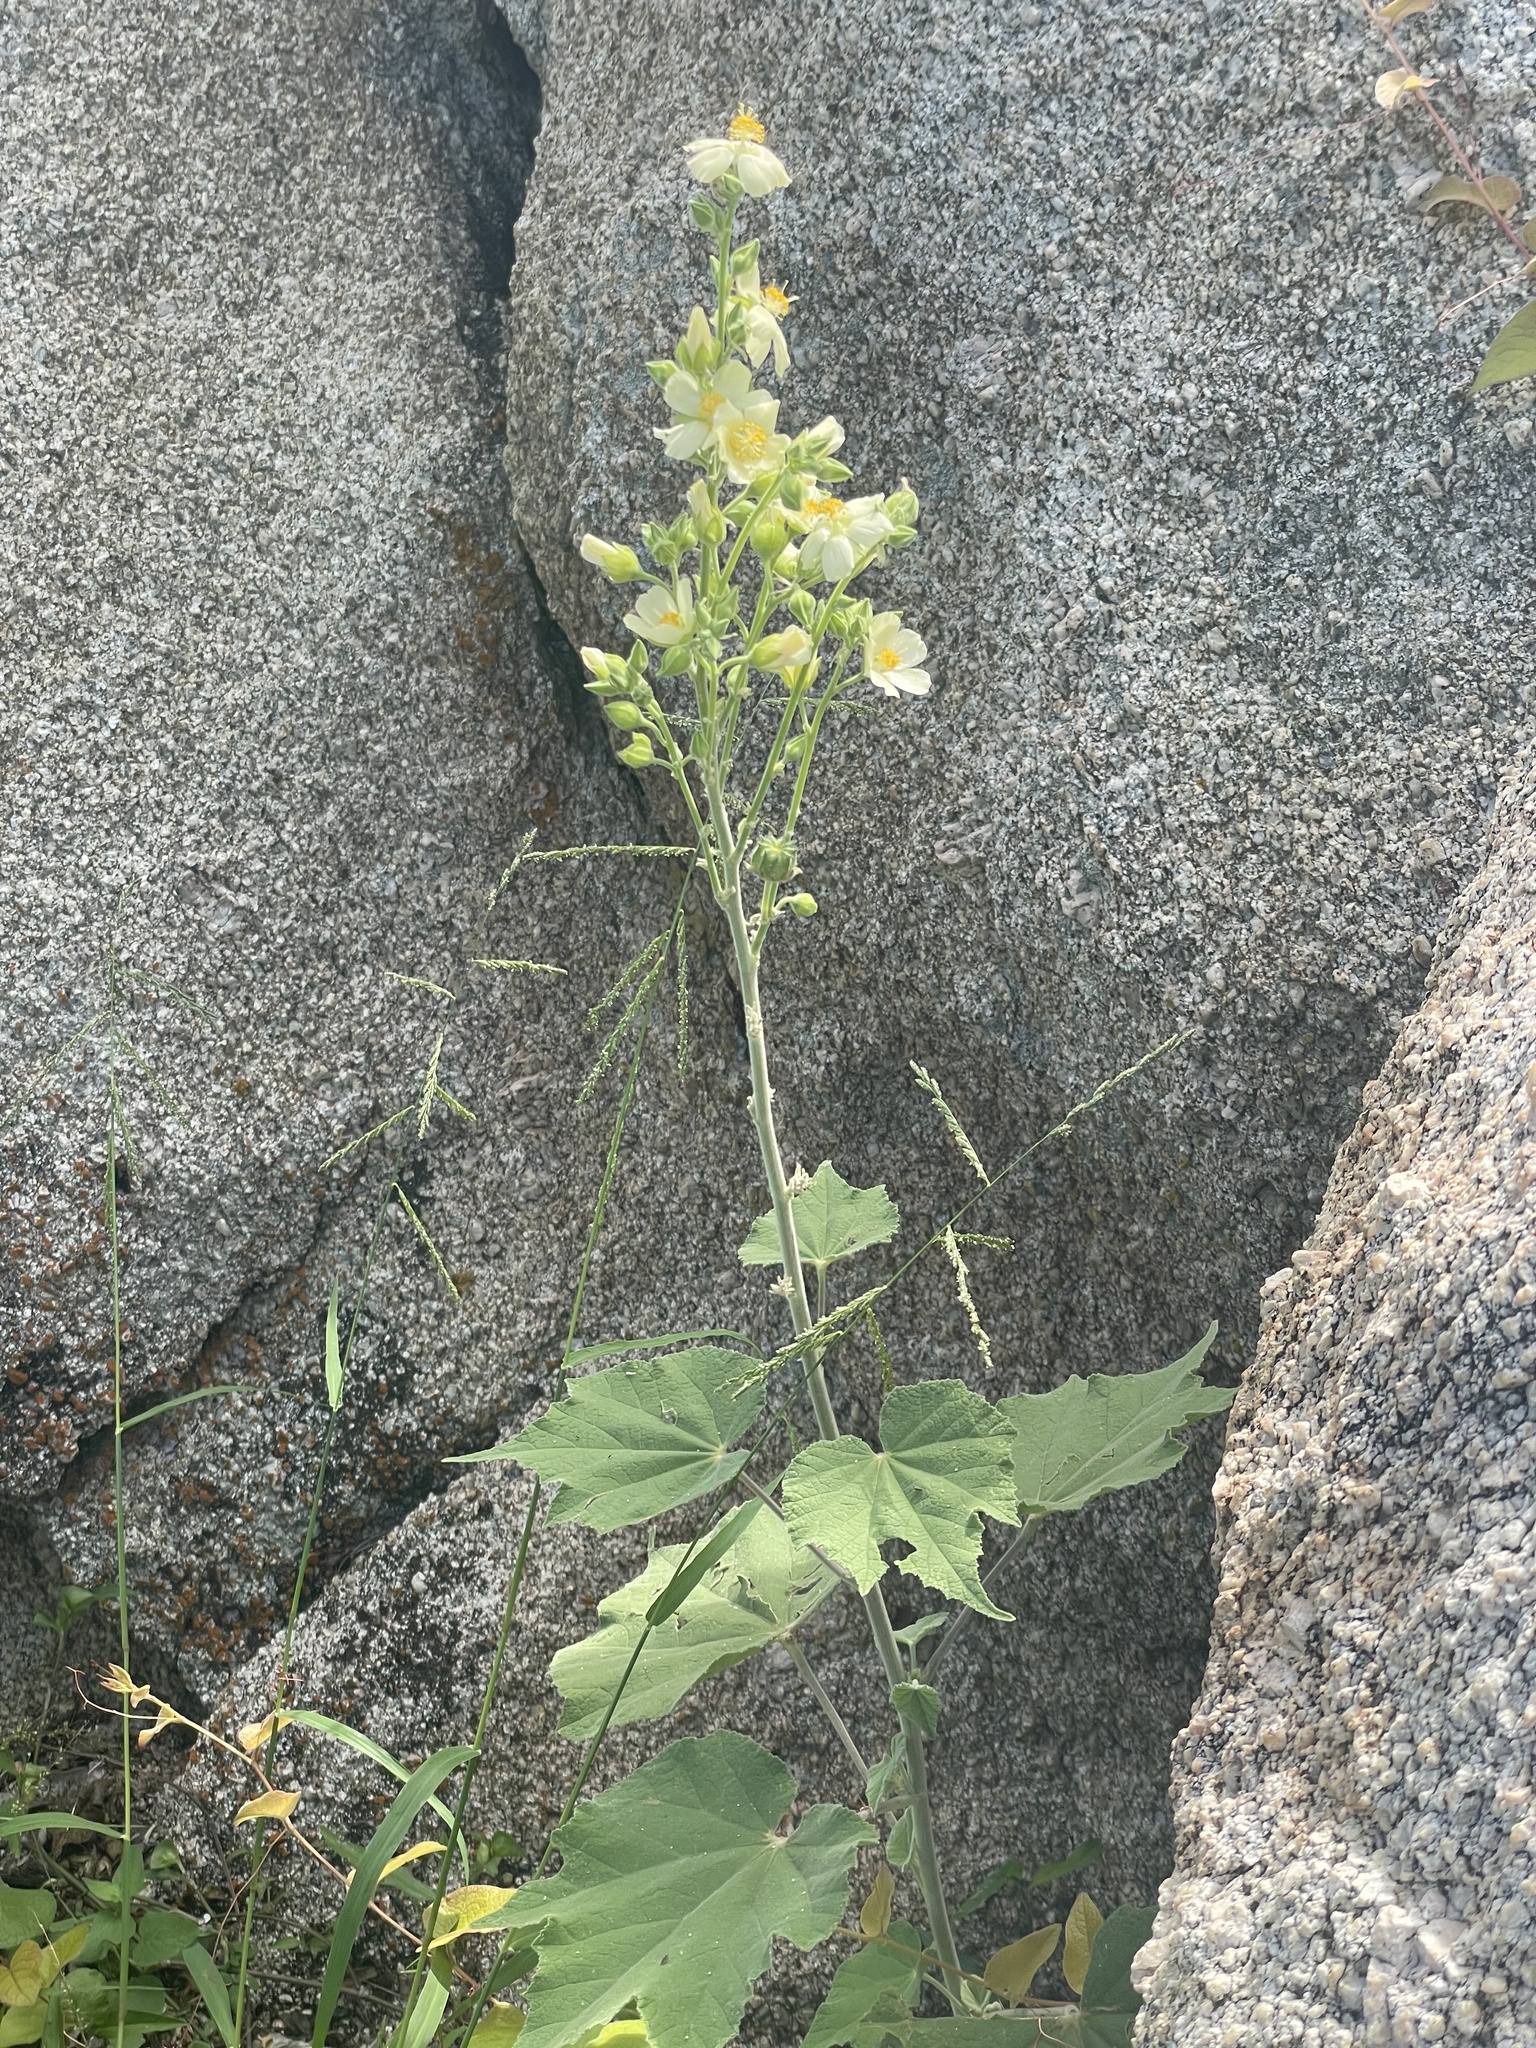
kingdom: Plantae
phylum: Tracheophyta
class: Magnoliopsida
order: Malvales
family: Malvaceae
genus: Abutilon
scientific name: Abutilon xanti
